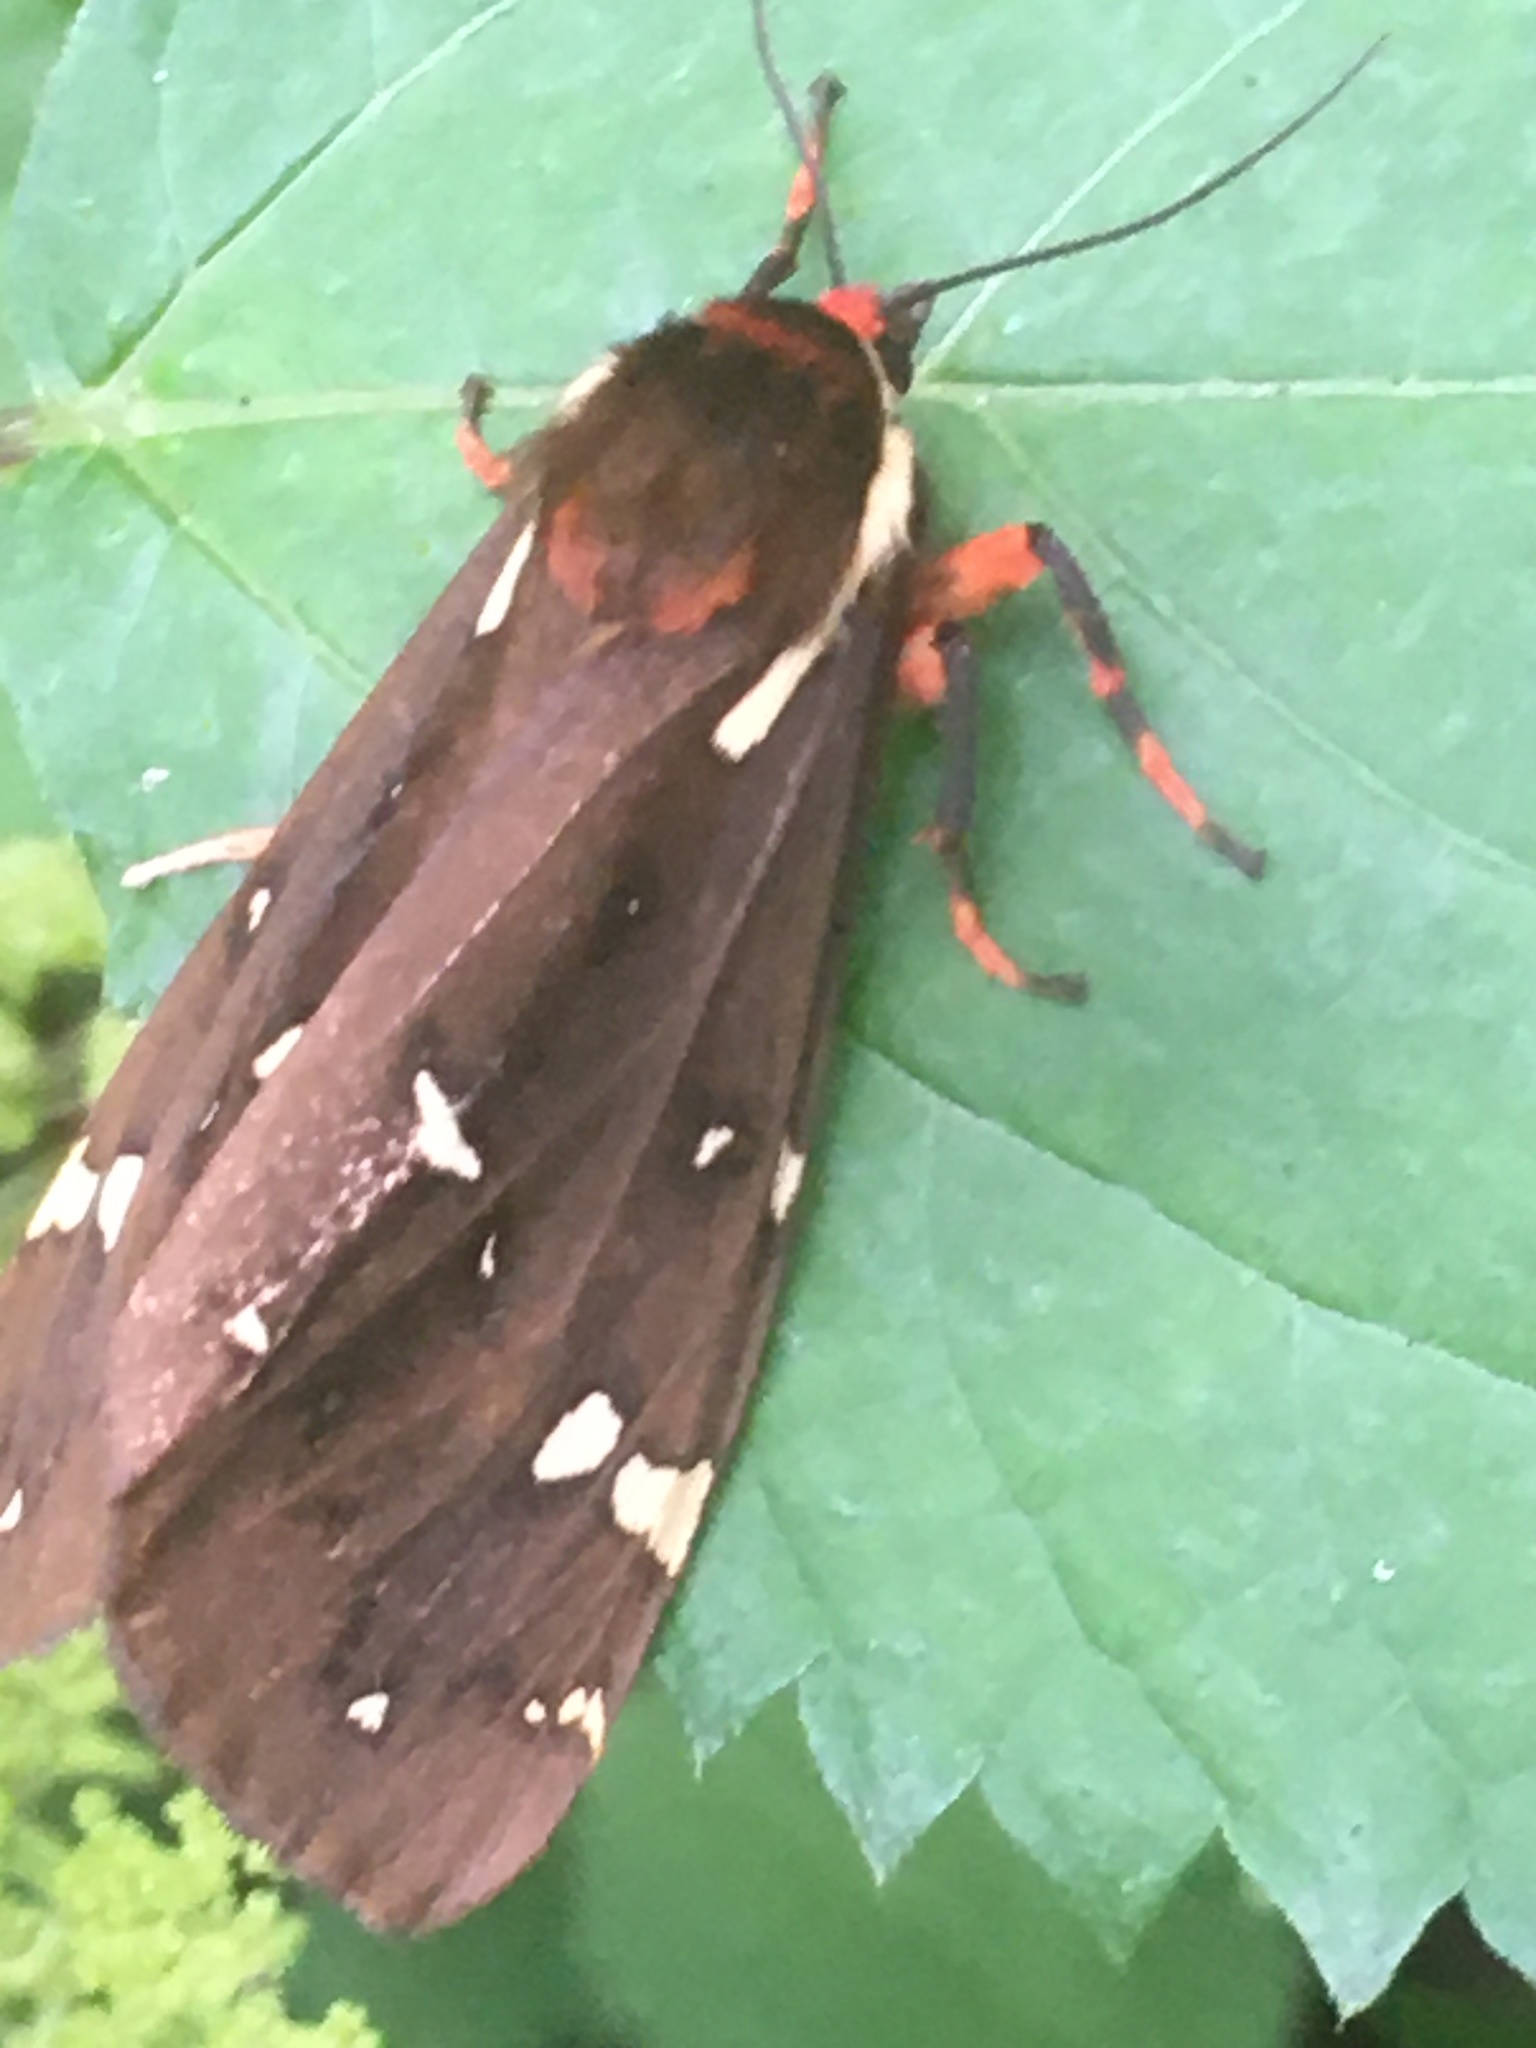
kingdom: Animalia
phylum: Arthropoda
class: Insecta
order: Lepidoptera
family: Erebidae
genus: Arctia
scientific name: Arctia parthenos
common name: St. lawrence tiger moth
